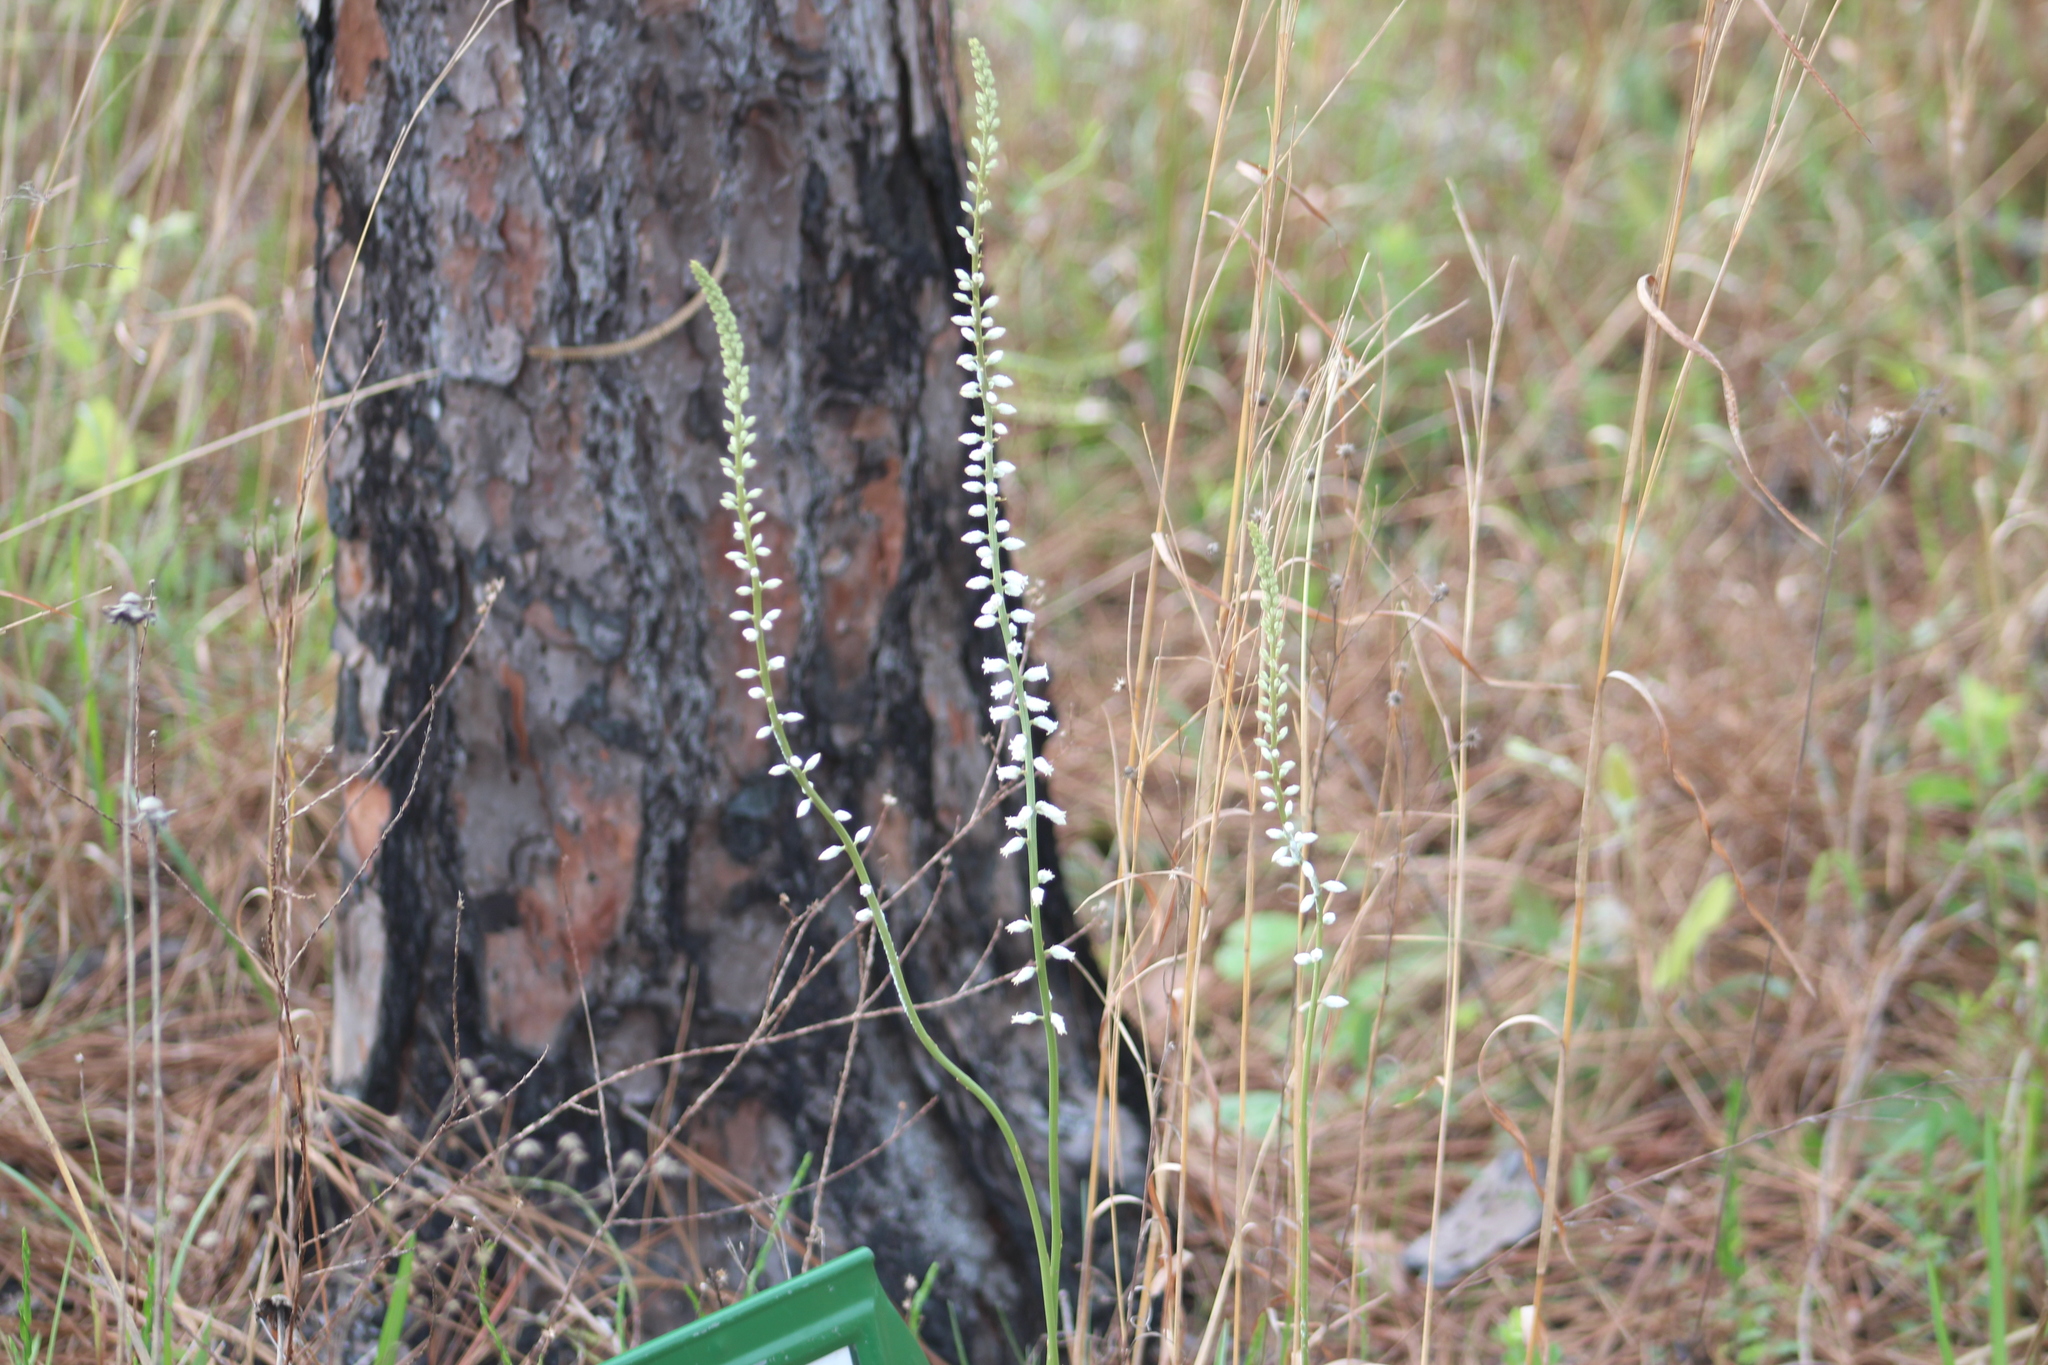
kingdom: Plantae
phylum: Tracheophyta
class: Liliopsida
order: Dioscoreales
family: Nartheciaceae
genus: Aletris
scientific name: Aletris farinosa
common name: Colicroot
